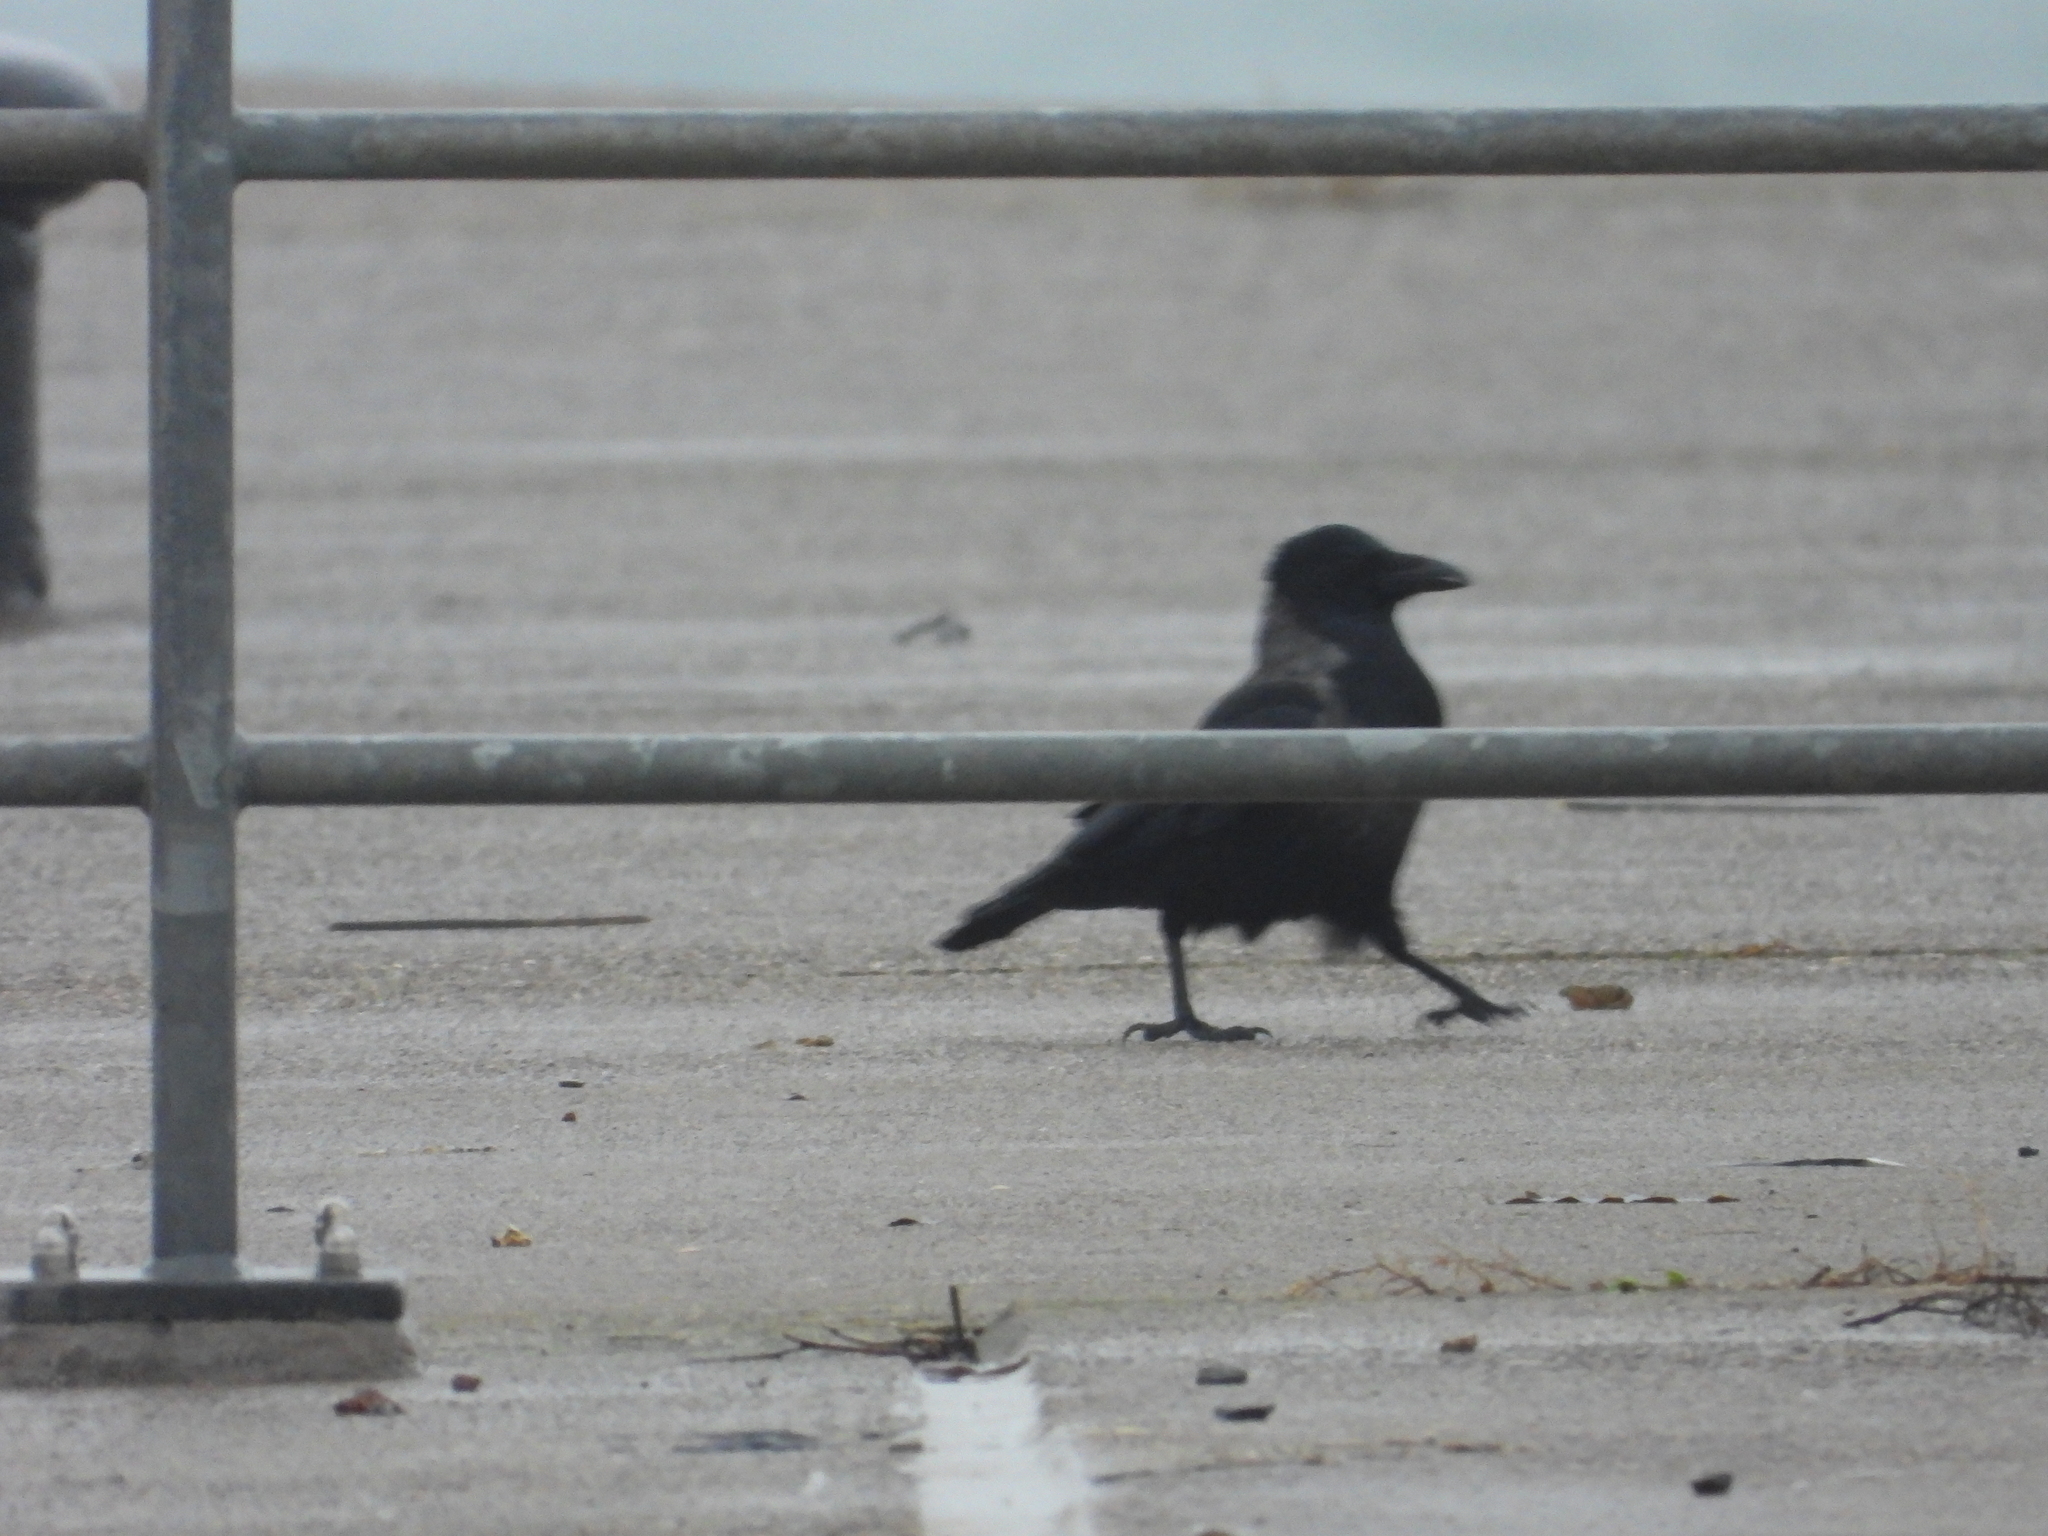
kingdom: Animalia
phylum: Chordata
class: Aves
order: Passeriformes
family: Corvidae
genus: Corvus
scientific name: Corvus
